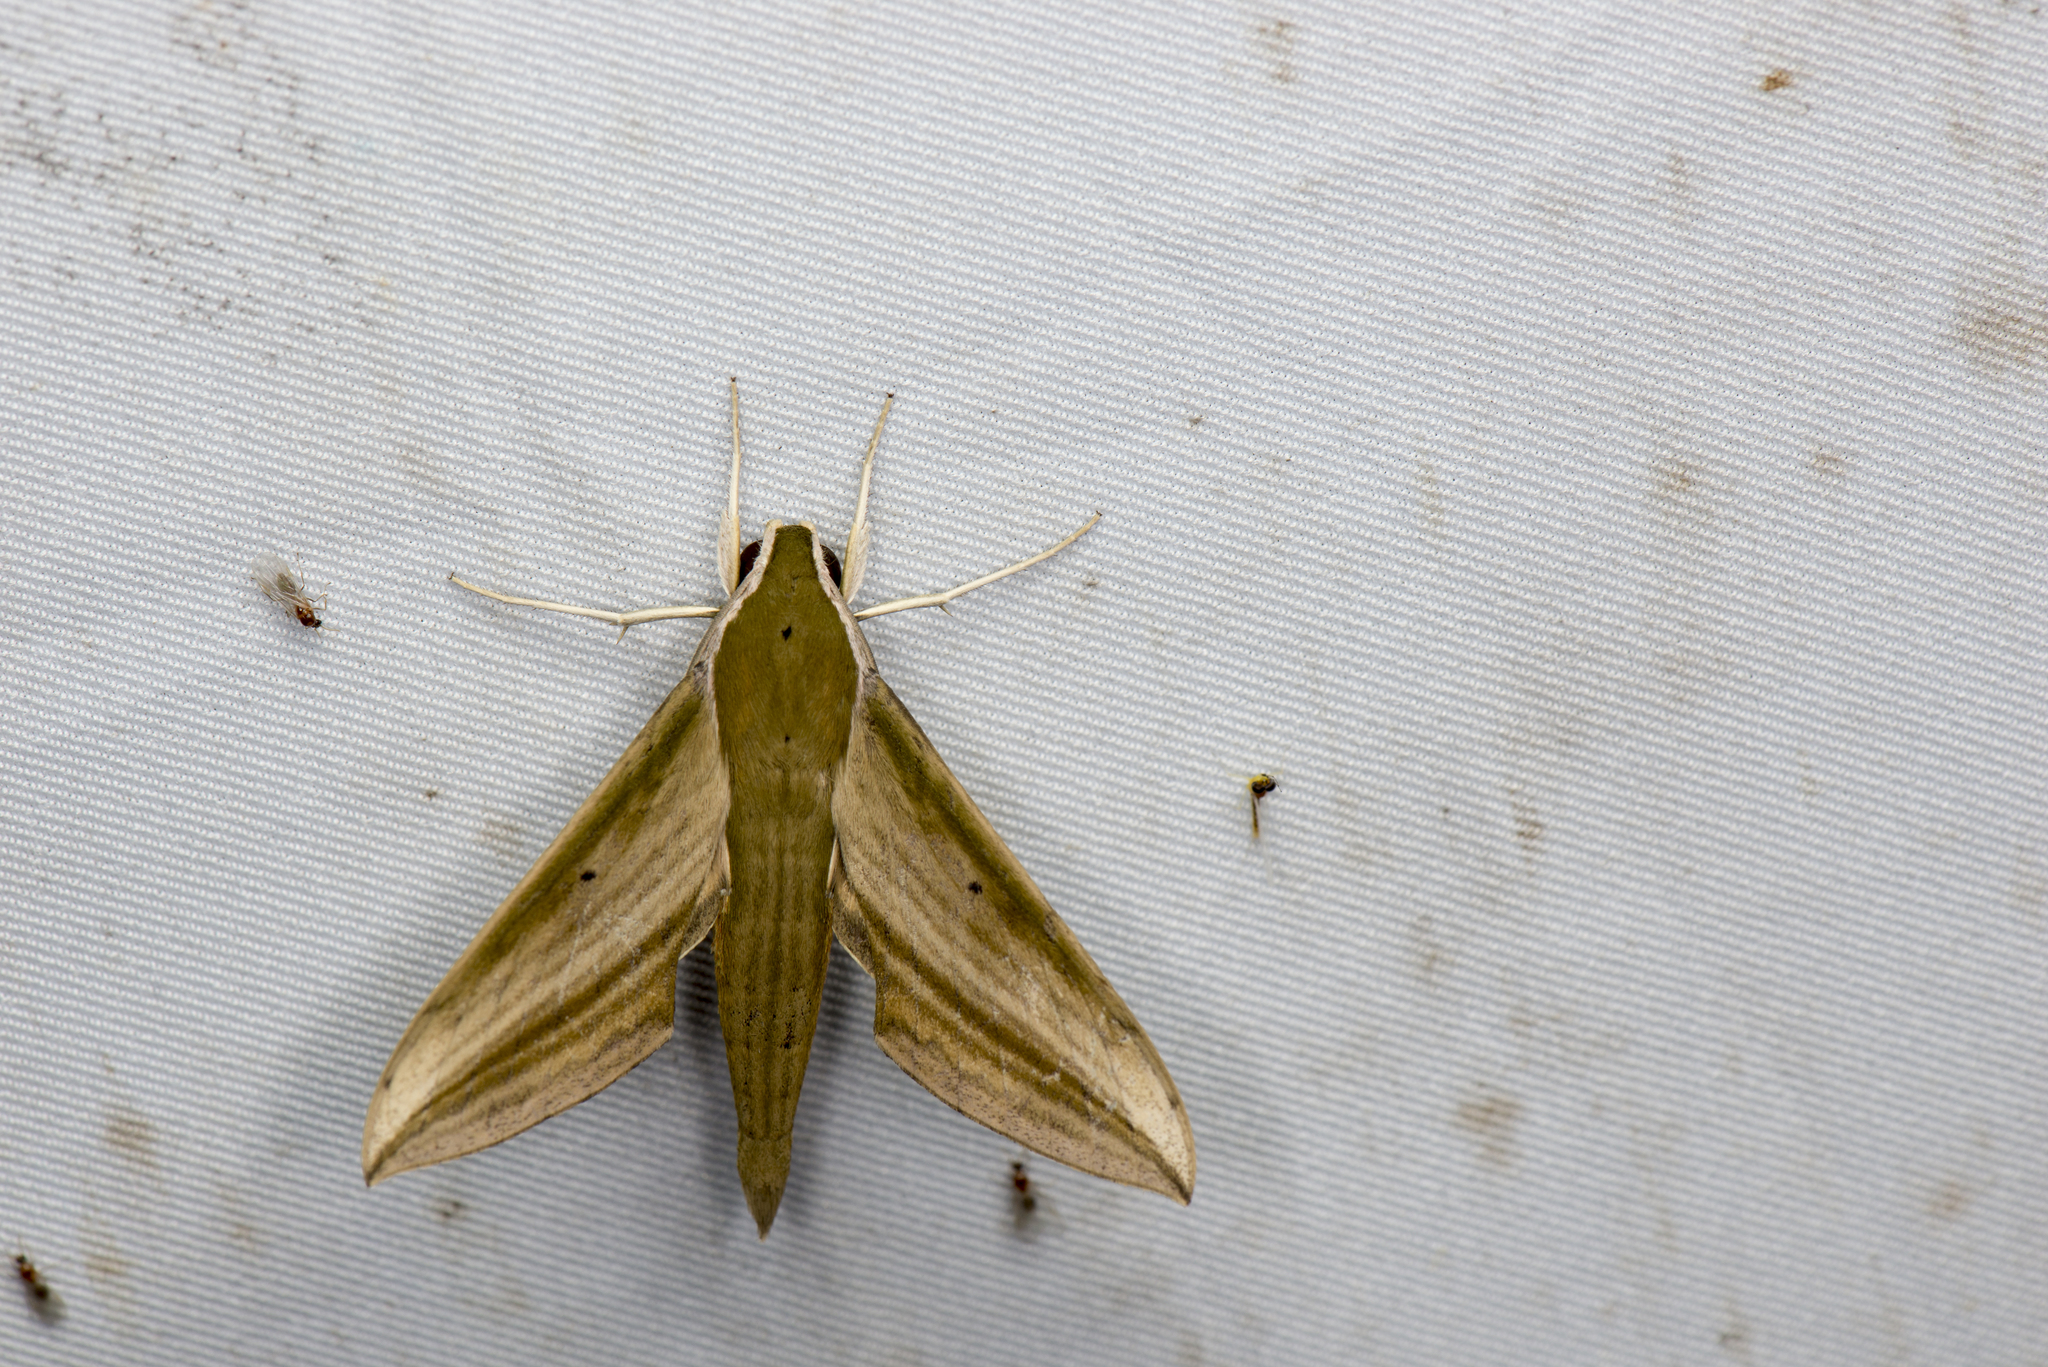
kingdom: Animalia
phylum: Arthropoda
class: Insecta
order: Lepidoptera
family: Sphingidae
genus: Cechetra
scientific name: Cechetra minor
